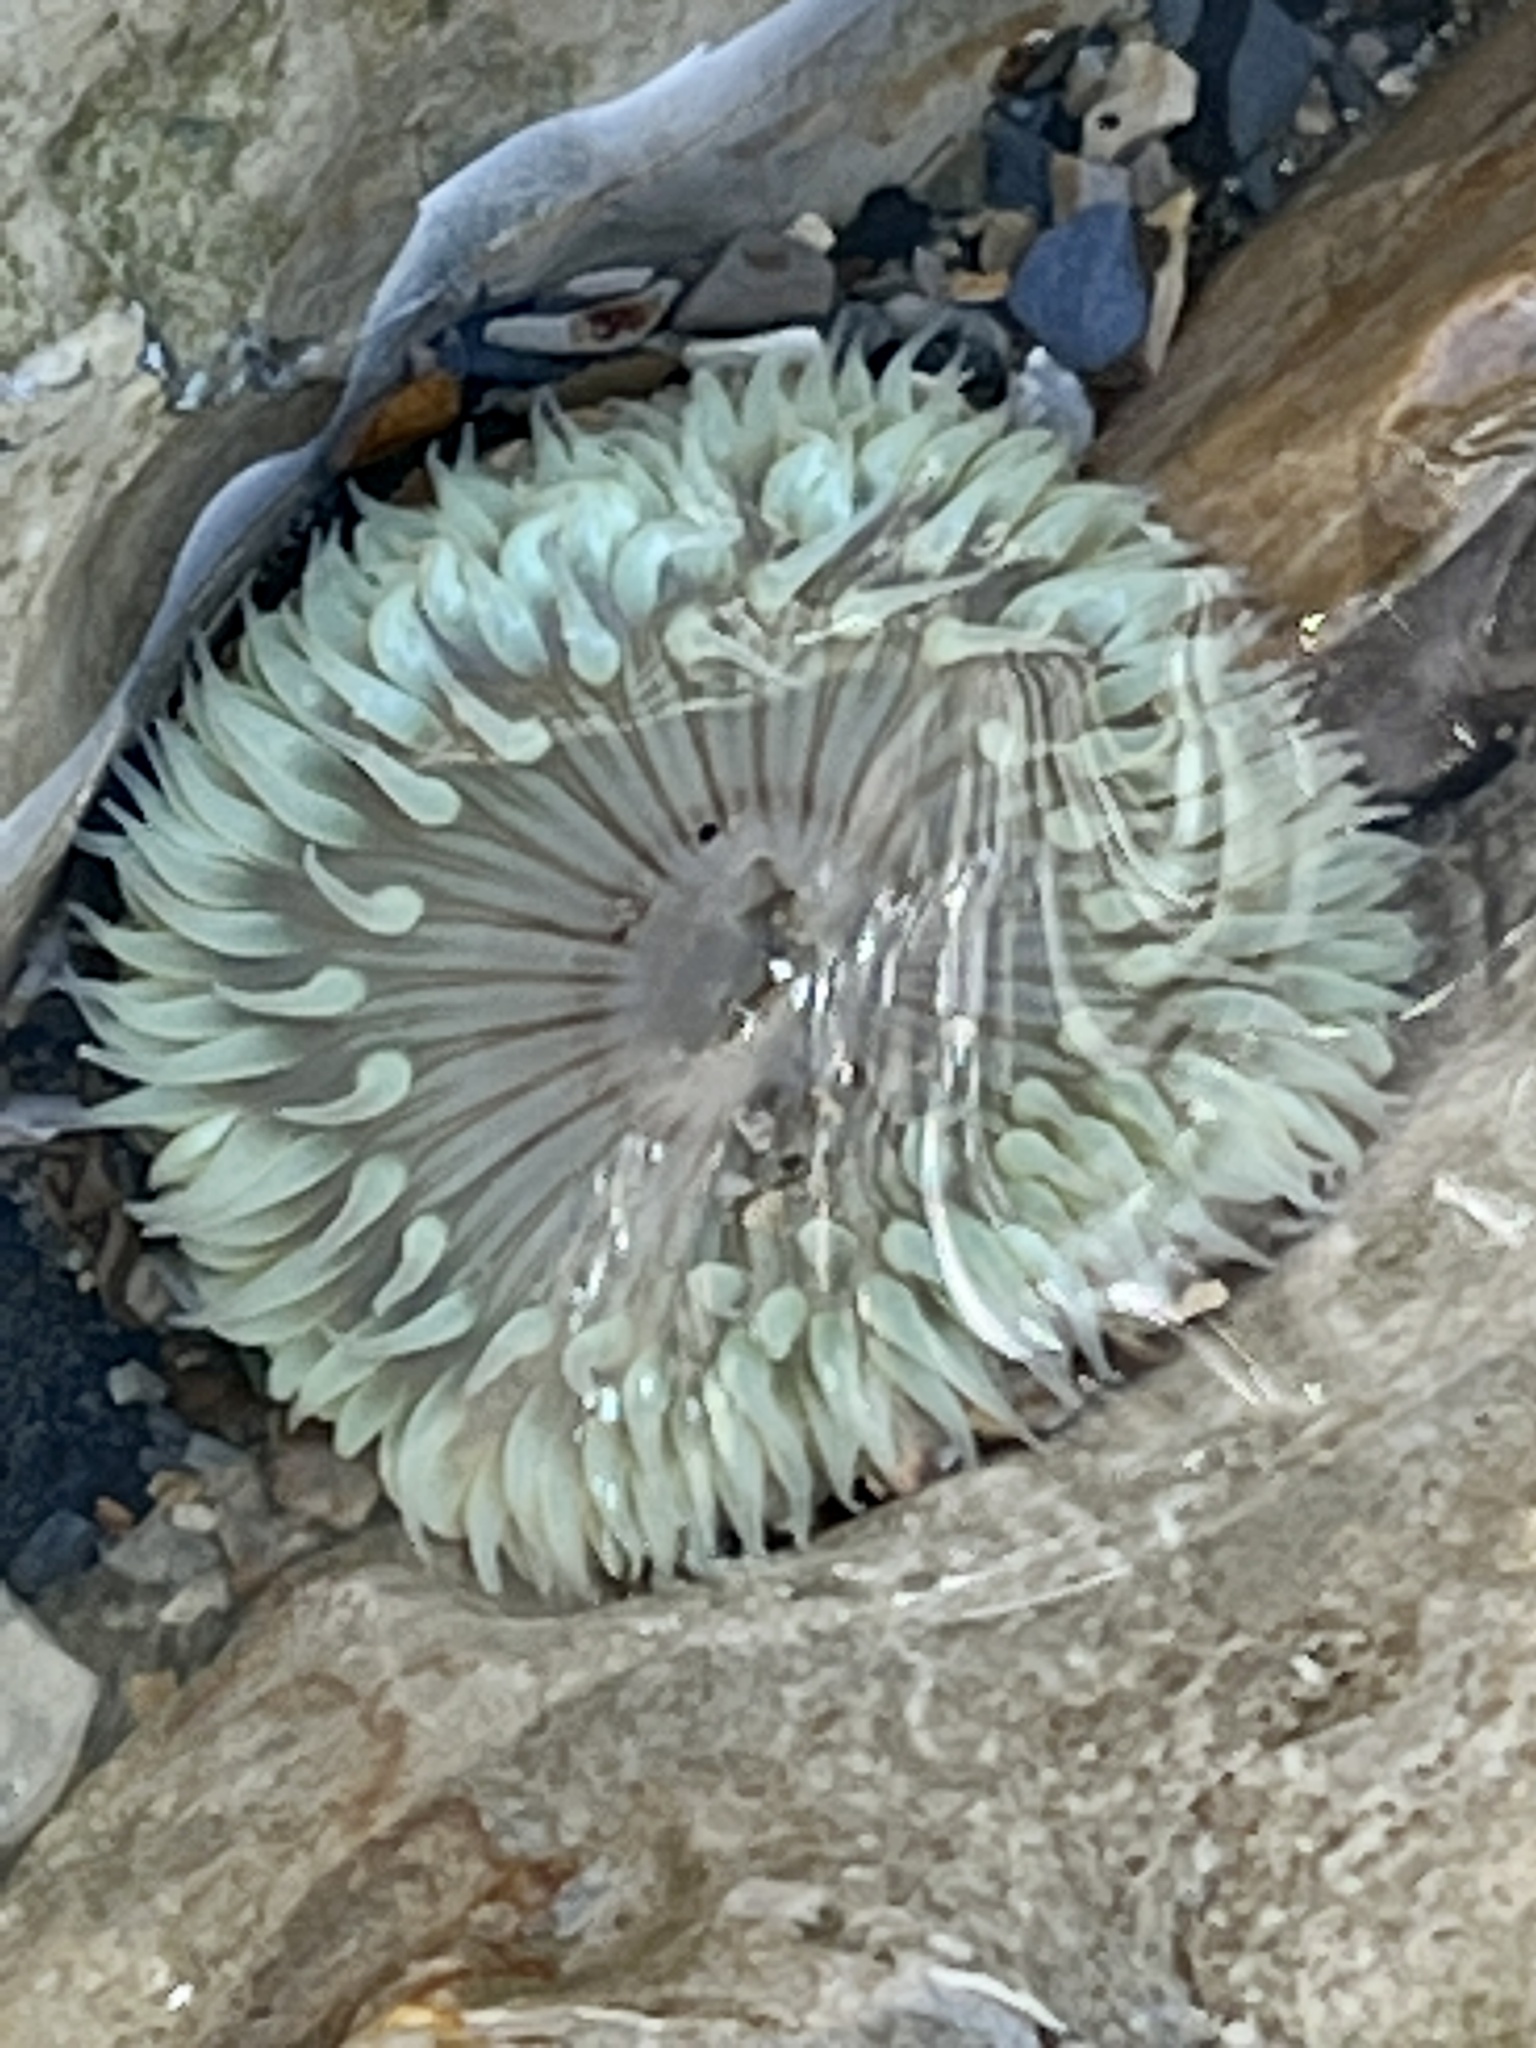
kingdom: Animalia
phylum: Cnidaria
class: Anthozoa
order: Actiniaria
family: Actiniidae
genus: Anthopleura
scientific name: Anthopleura sola
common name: Sun anemone
